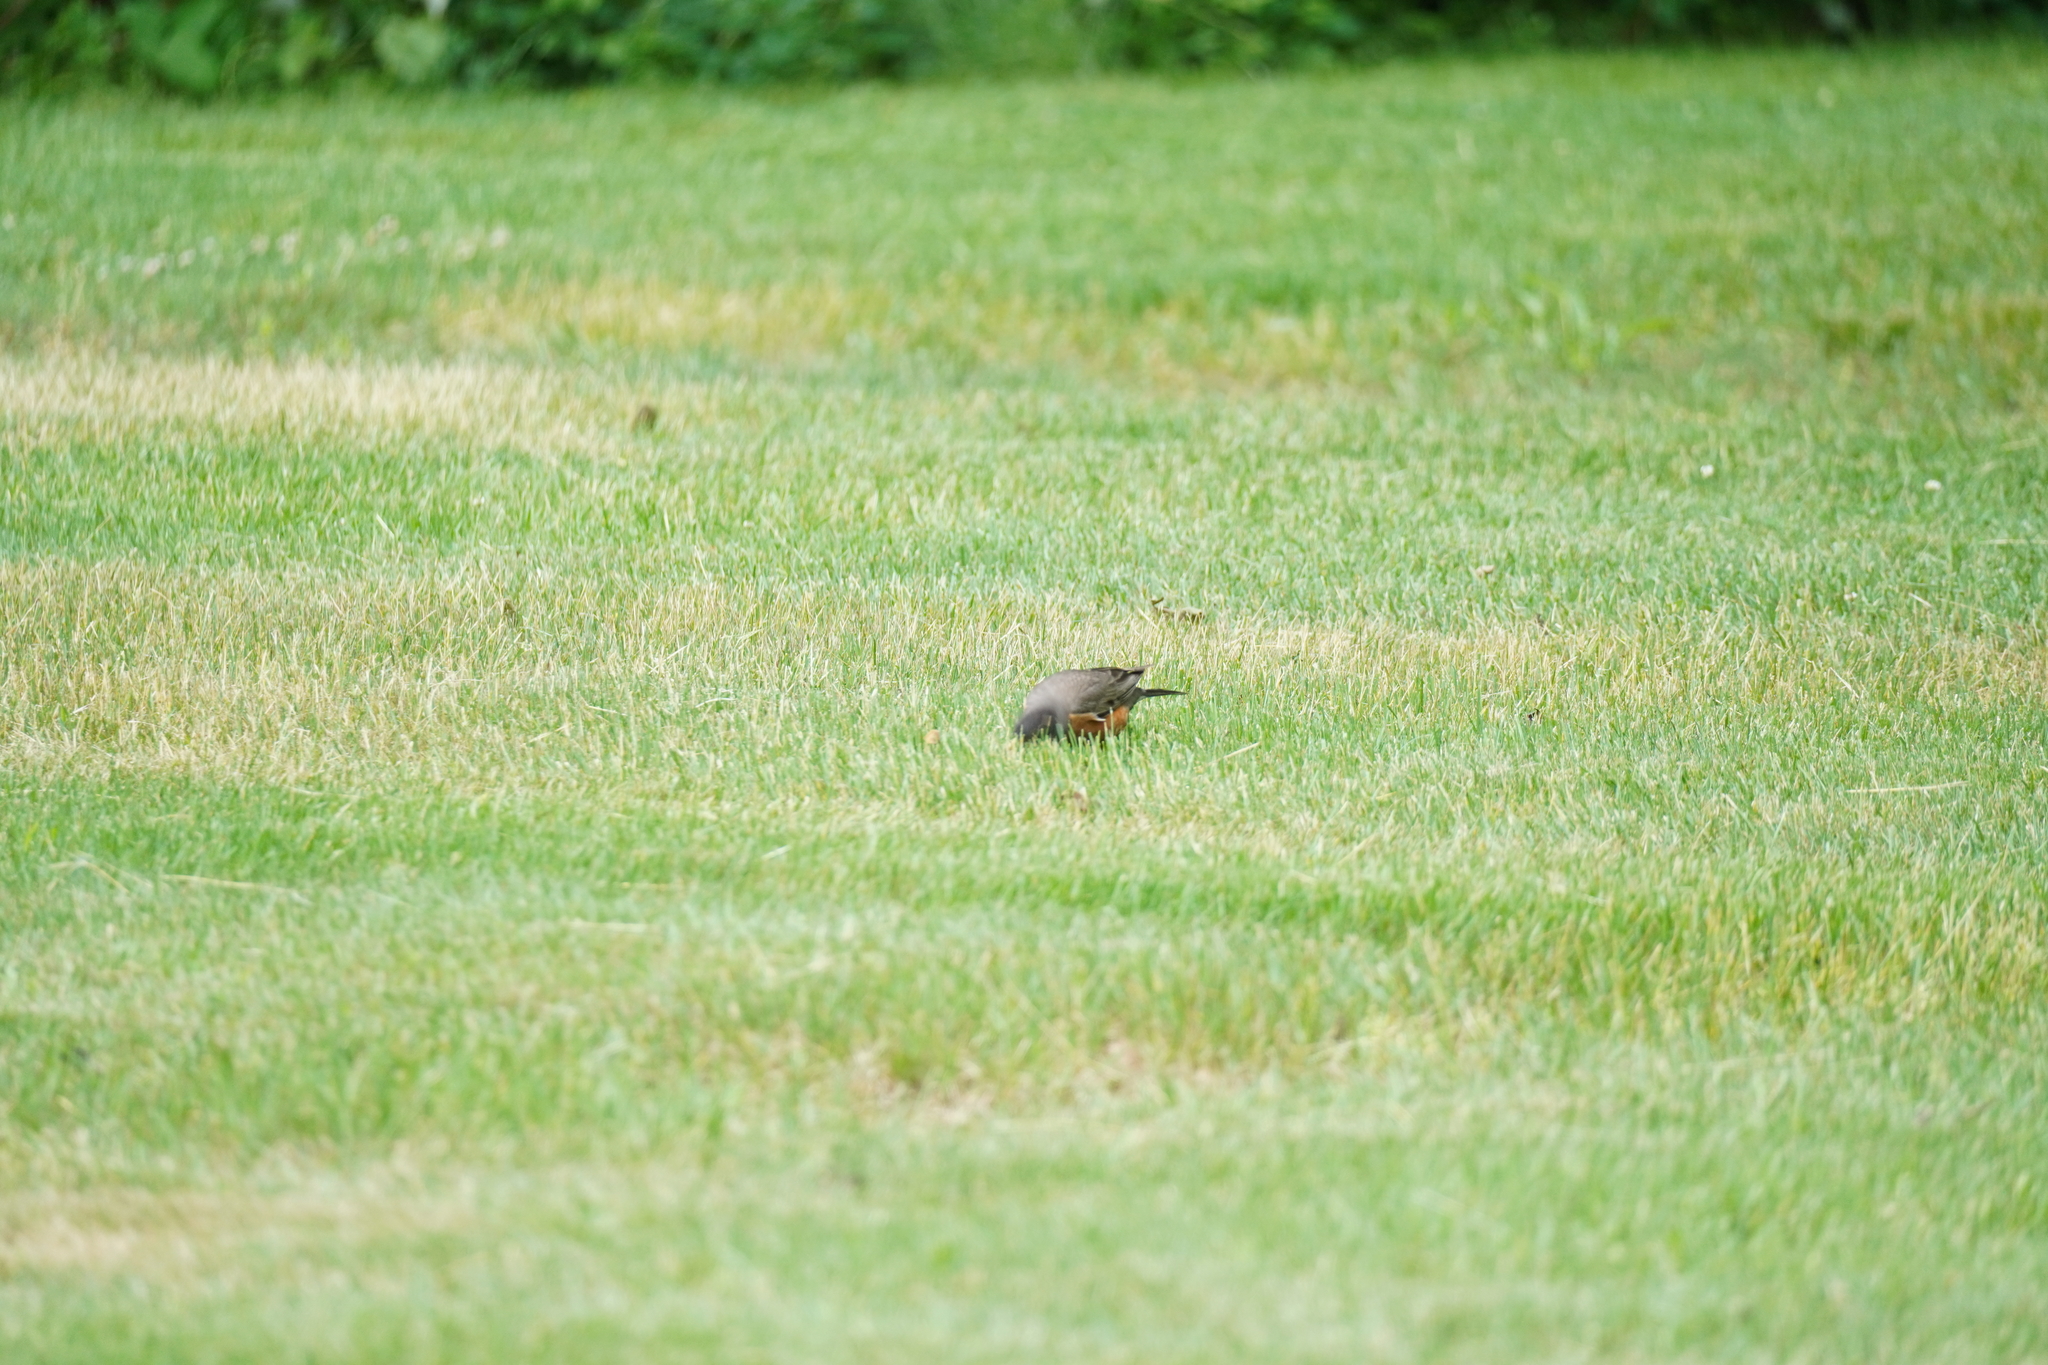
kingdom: Animalia
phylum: Chordata
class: Aves
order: Passeriformes
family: Turdidae
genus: Turdus
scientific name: Turdus migratorius
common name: American robin
